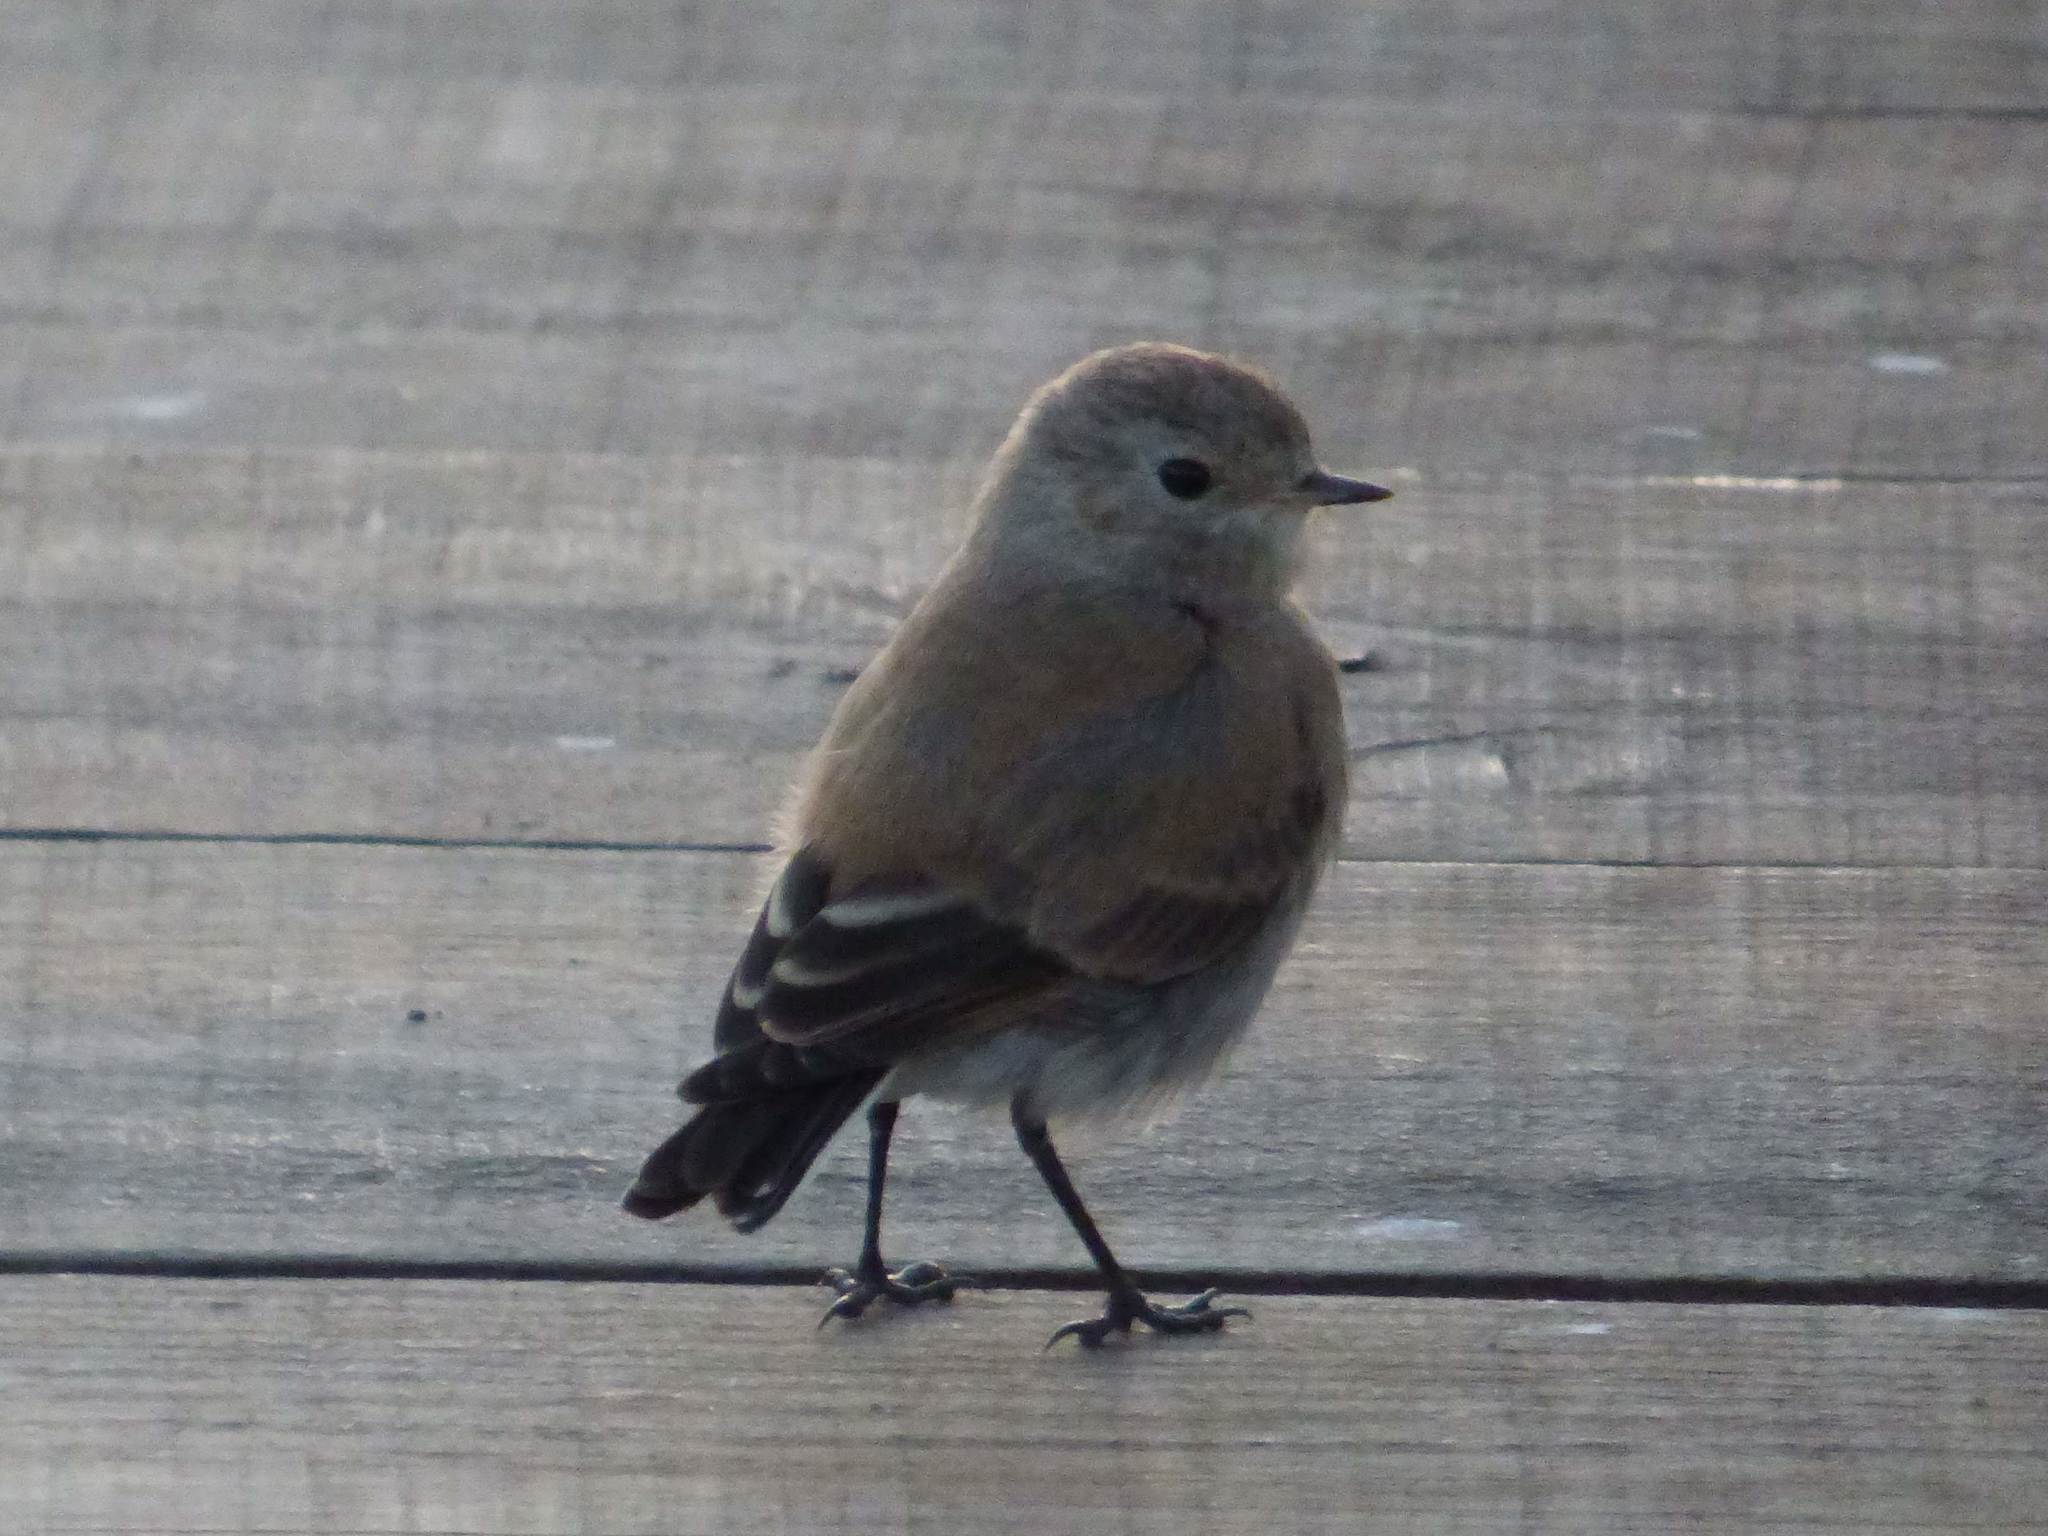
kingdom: Animalia
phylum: Chordata
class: Aves
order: Passeriformes
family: Tyrannidae
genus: Lessonia
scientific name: Lessonia rufa
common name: Austral negrito
